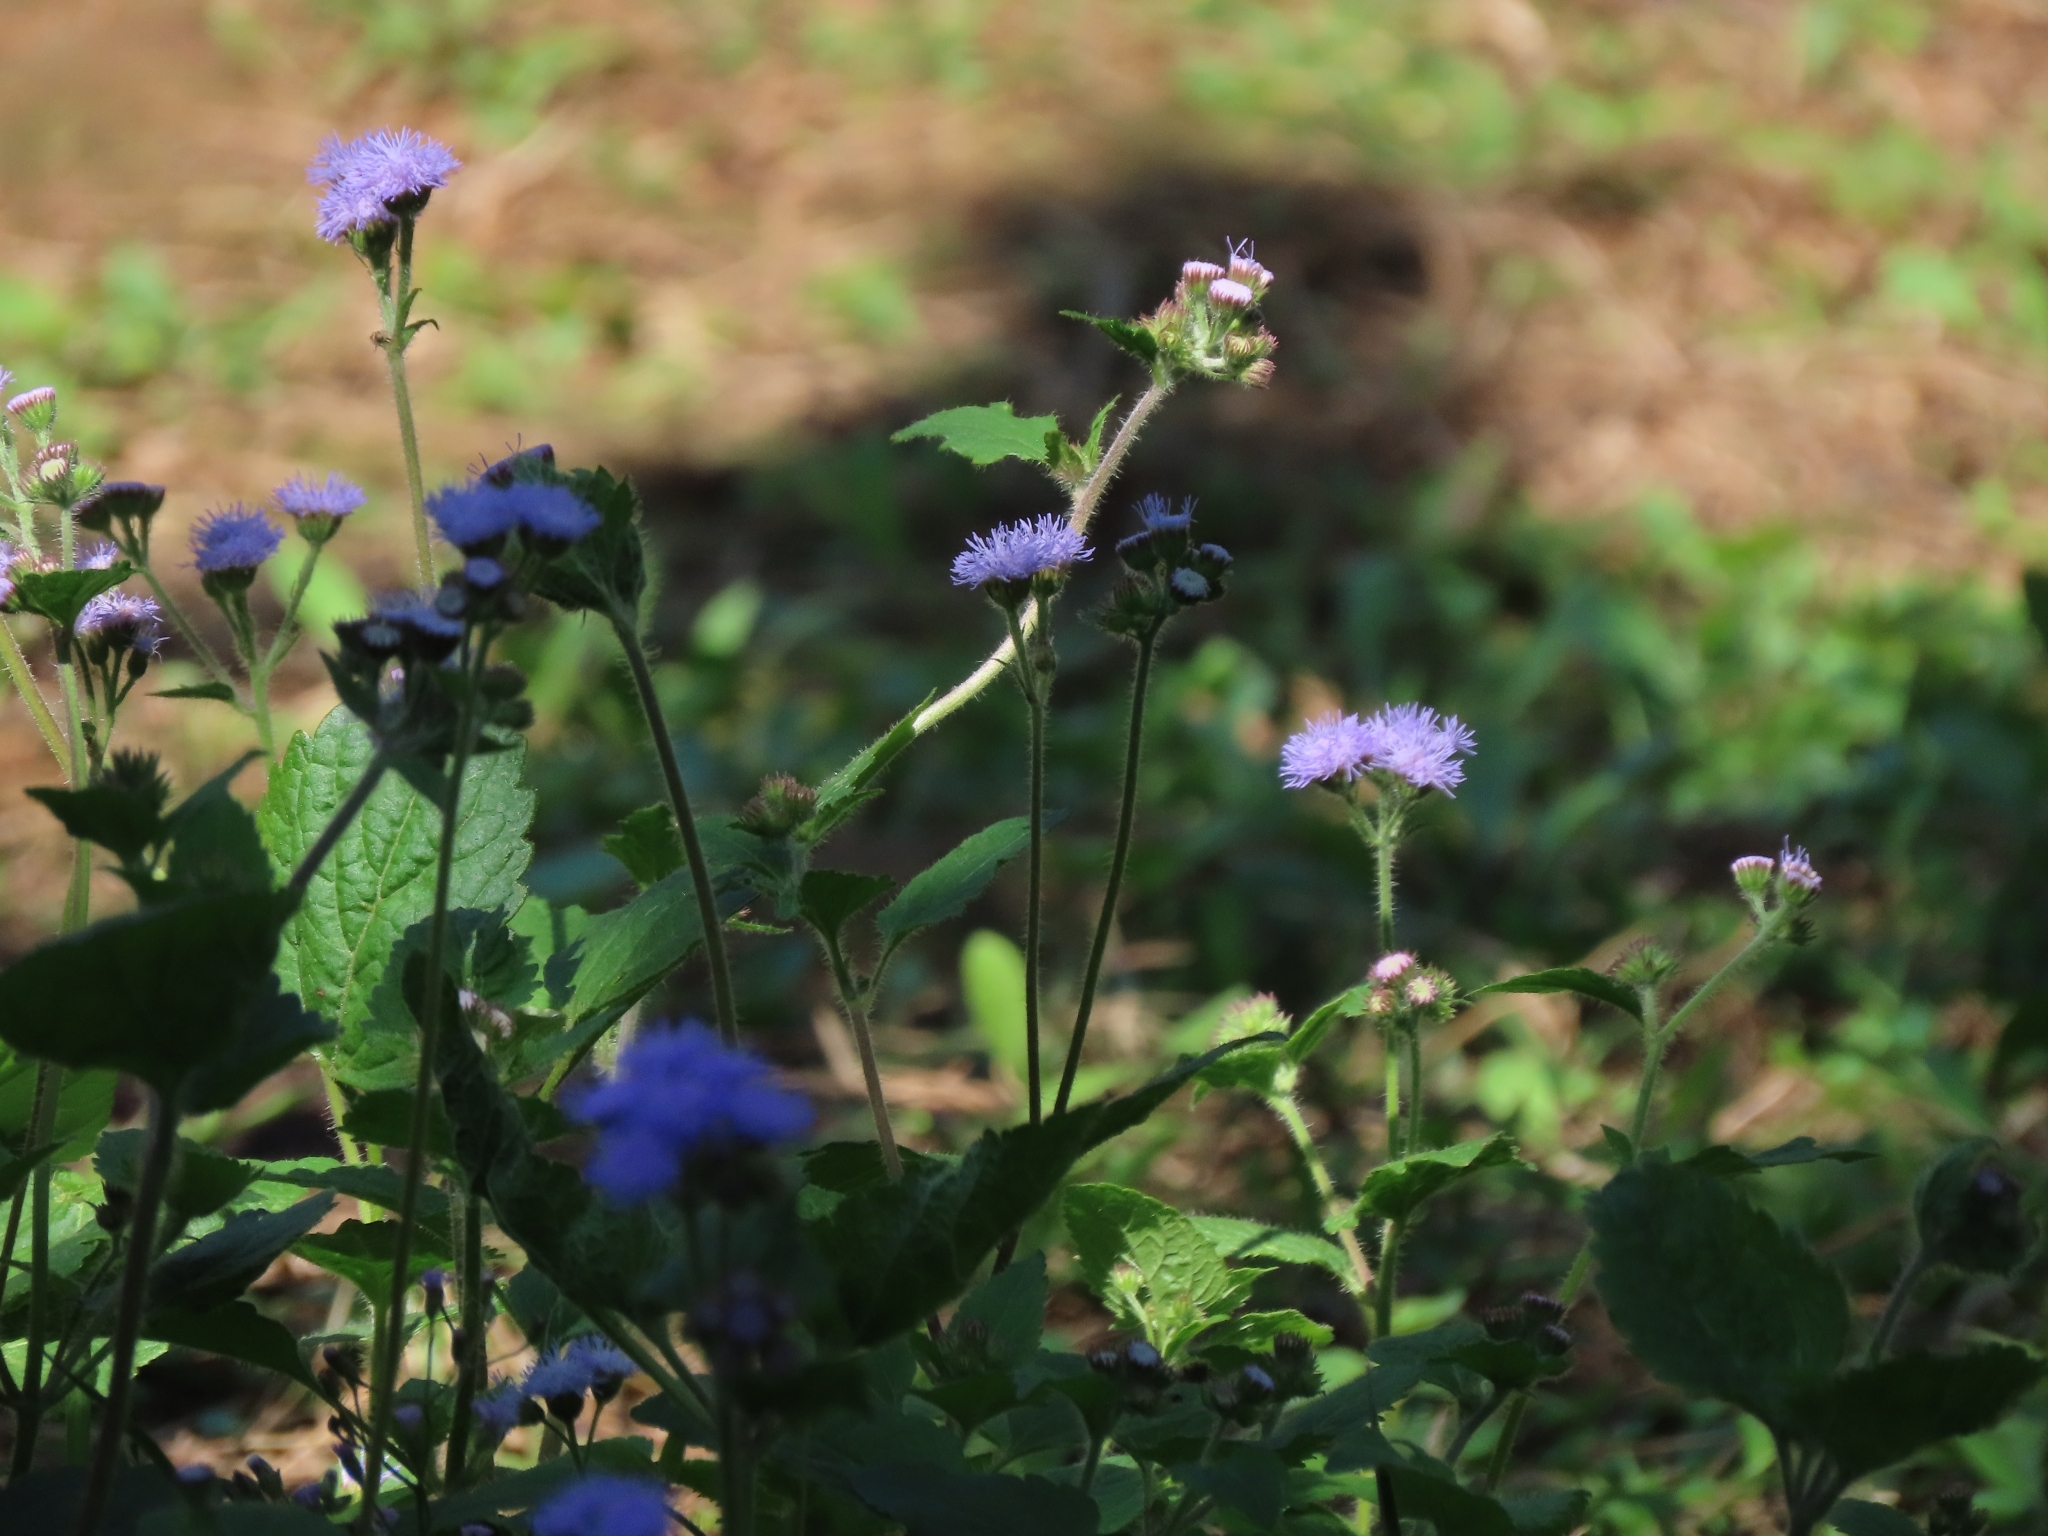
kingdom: Plantae
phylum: Tracheophyta
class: Magnoliopsida
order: Asterales
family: Asteraceae
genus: Ageratum
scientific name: Ageratum houstonianum
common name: Bluemink
